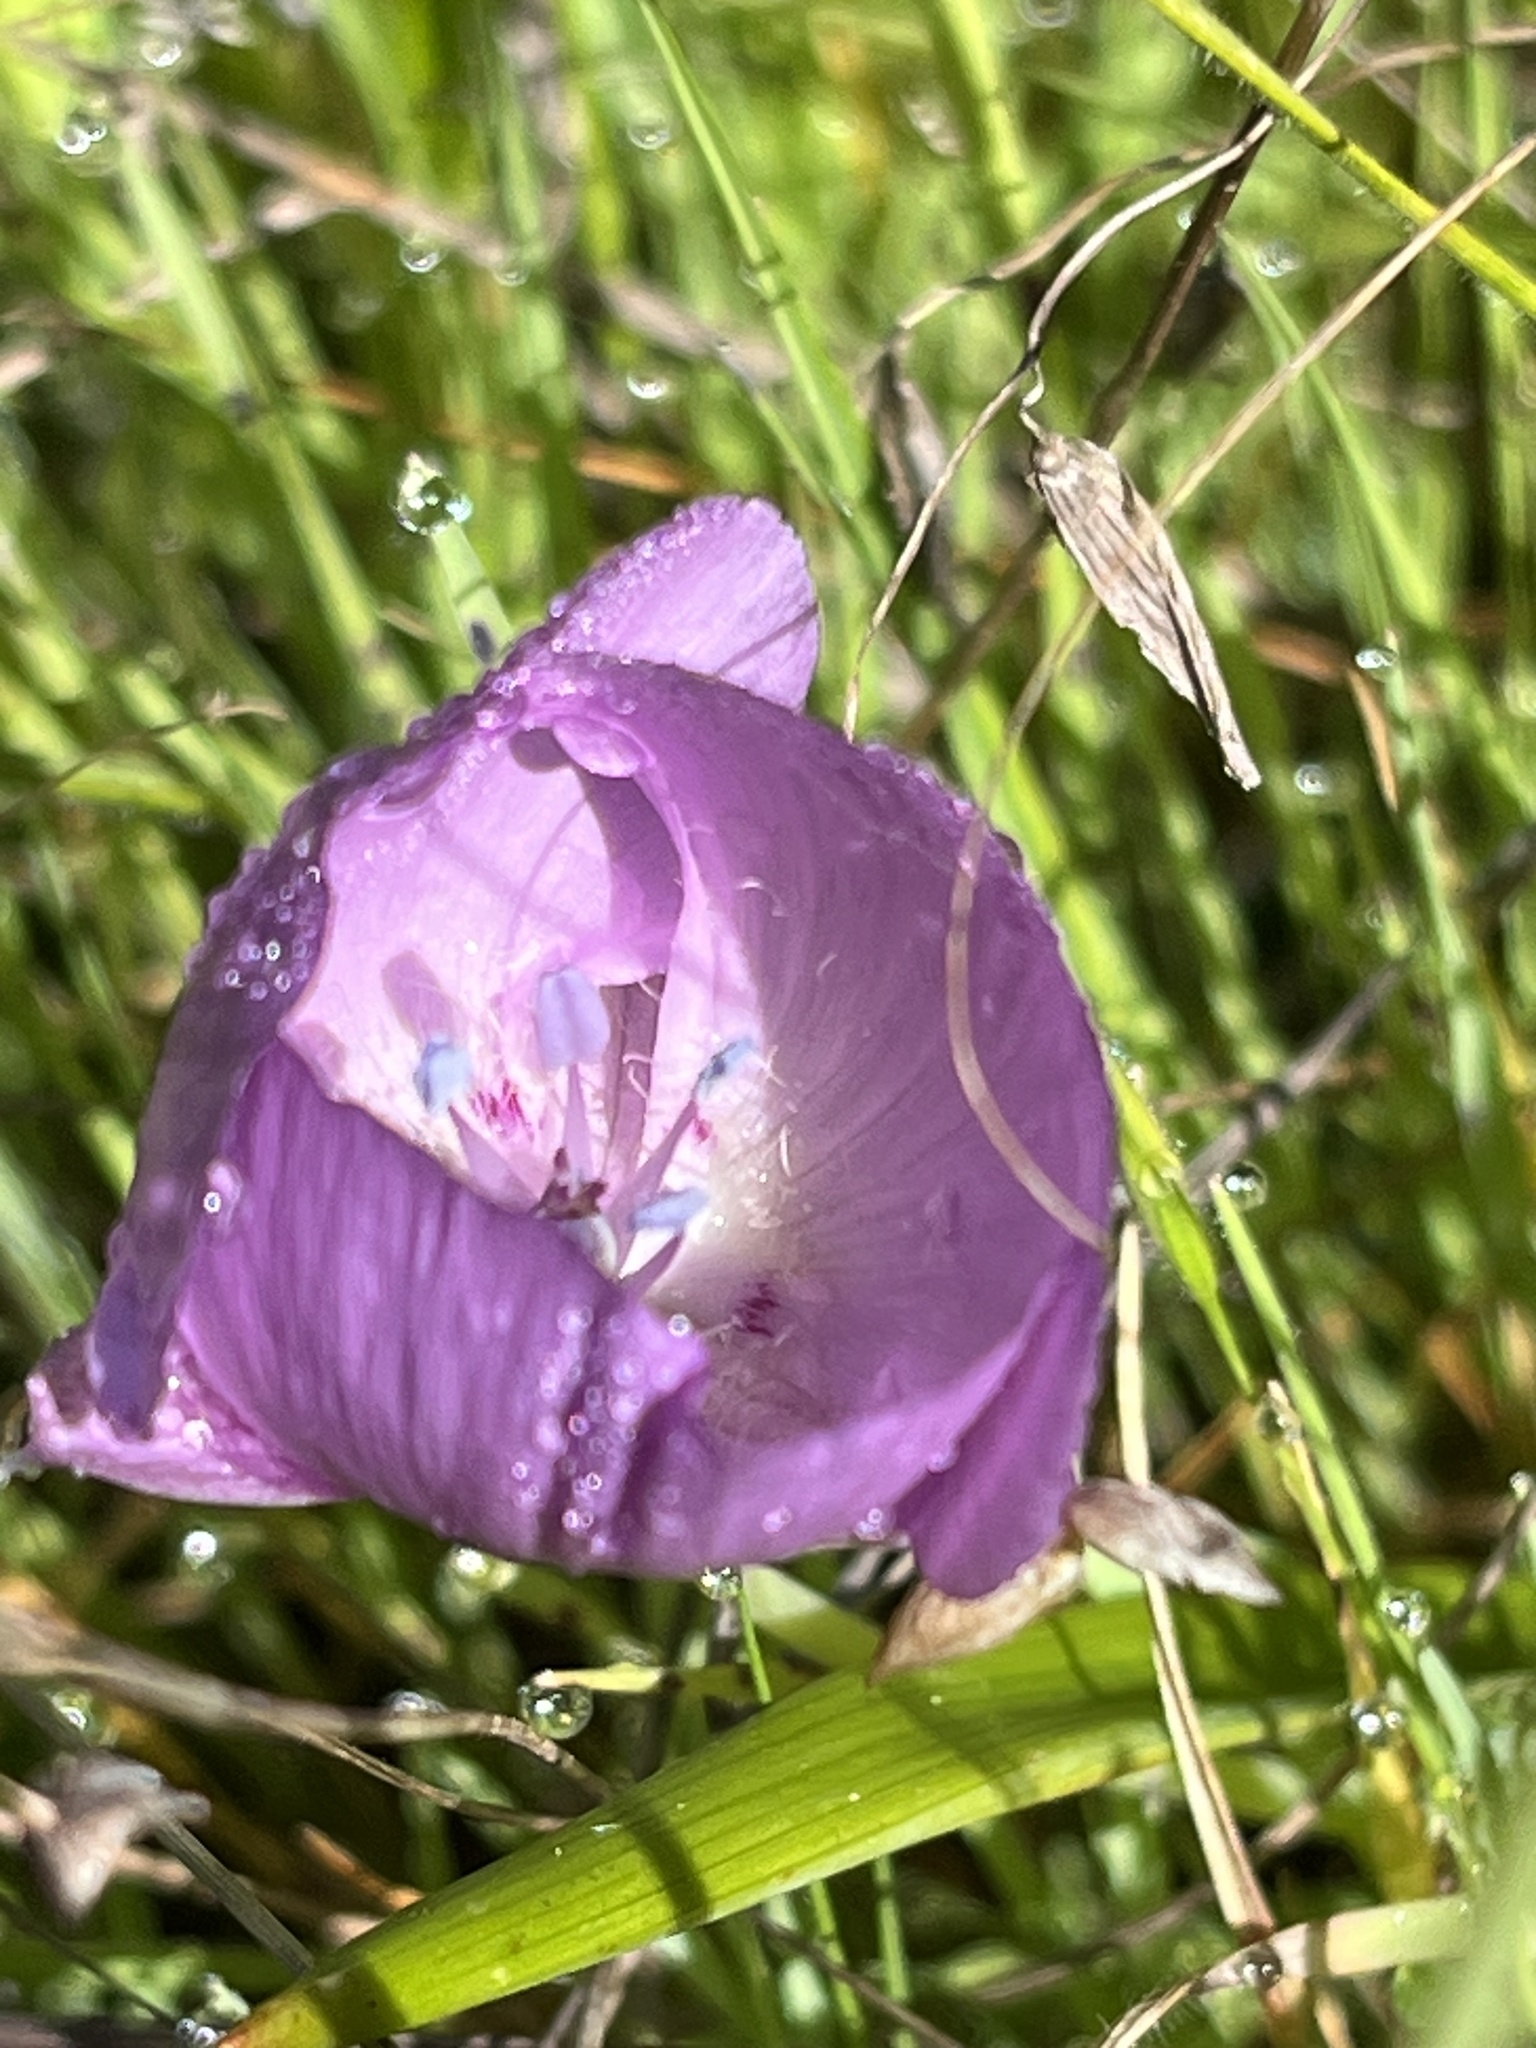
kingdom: Plantae
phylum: Tracheophyta
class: Liliopsida
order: Liliales
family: Liliaceae
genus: Calochortus
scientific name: Calochortus uniflorus
